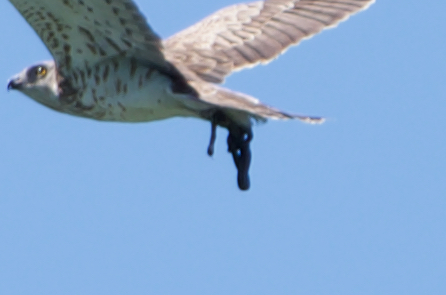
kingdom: Animalia
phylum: Chordata
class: Squamata
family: Colubridae
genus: Natrix
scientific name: Natrix helvetica
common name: Banded grass snake
